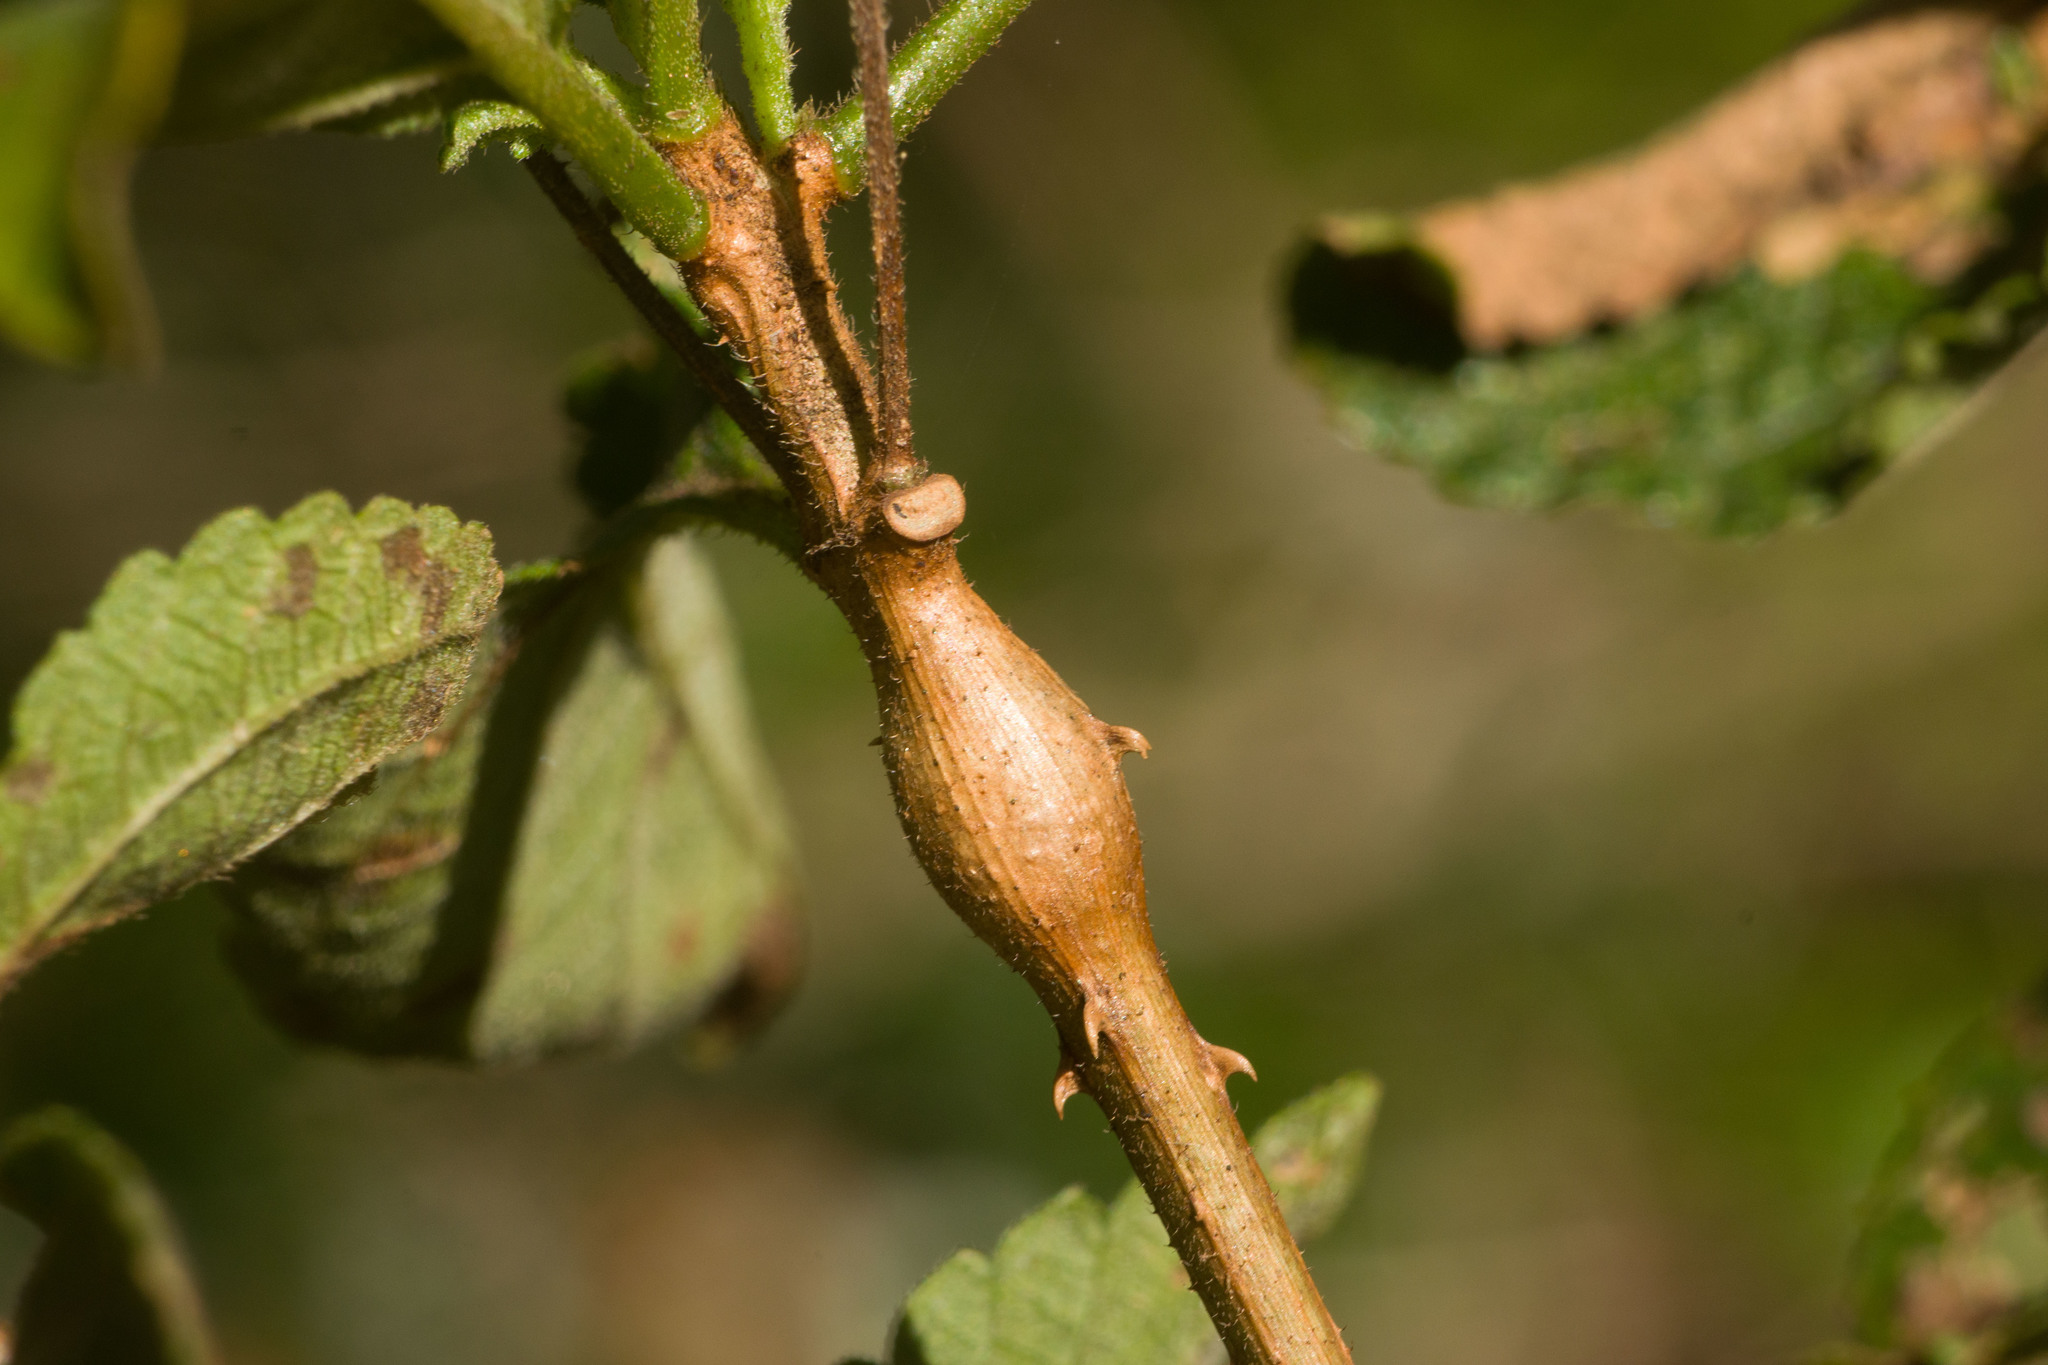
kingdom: Animalia
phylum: Arthropoda
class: Insecta
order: Diptera
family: Tephritidae
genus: Eutreta
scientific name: Eutreta xanthochaeta
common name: Lantana gall fly
